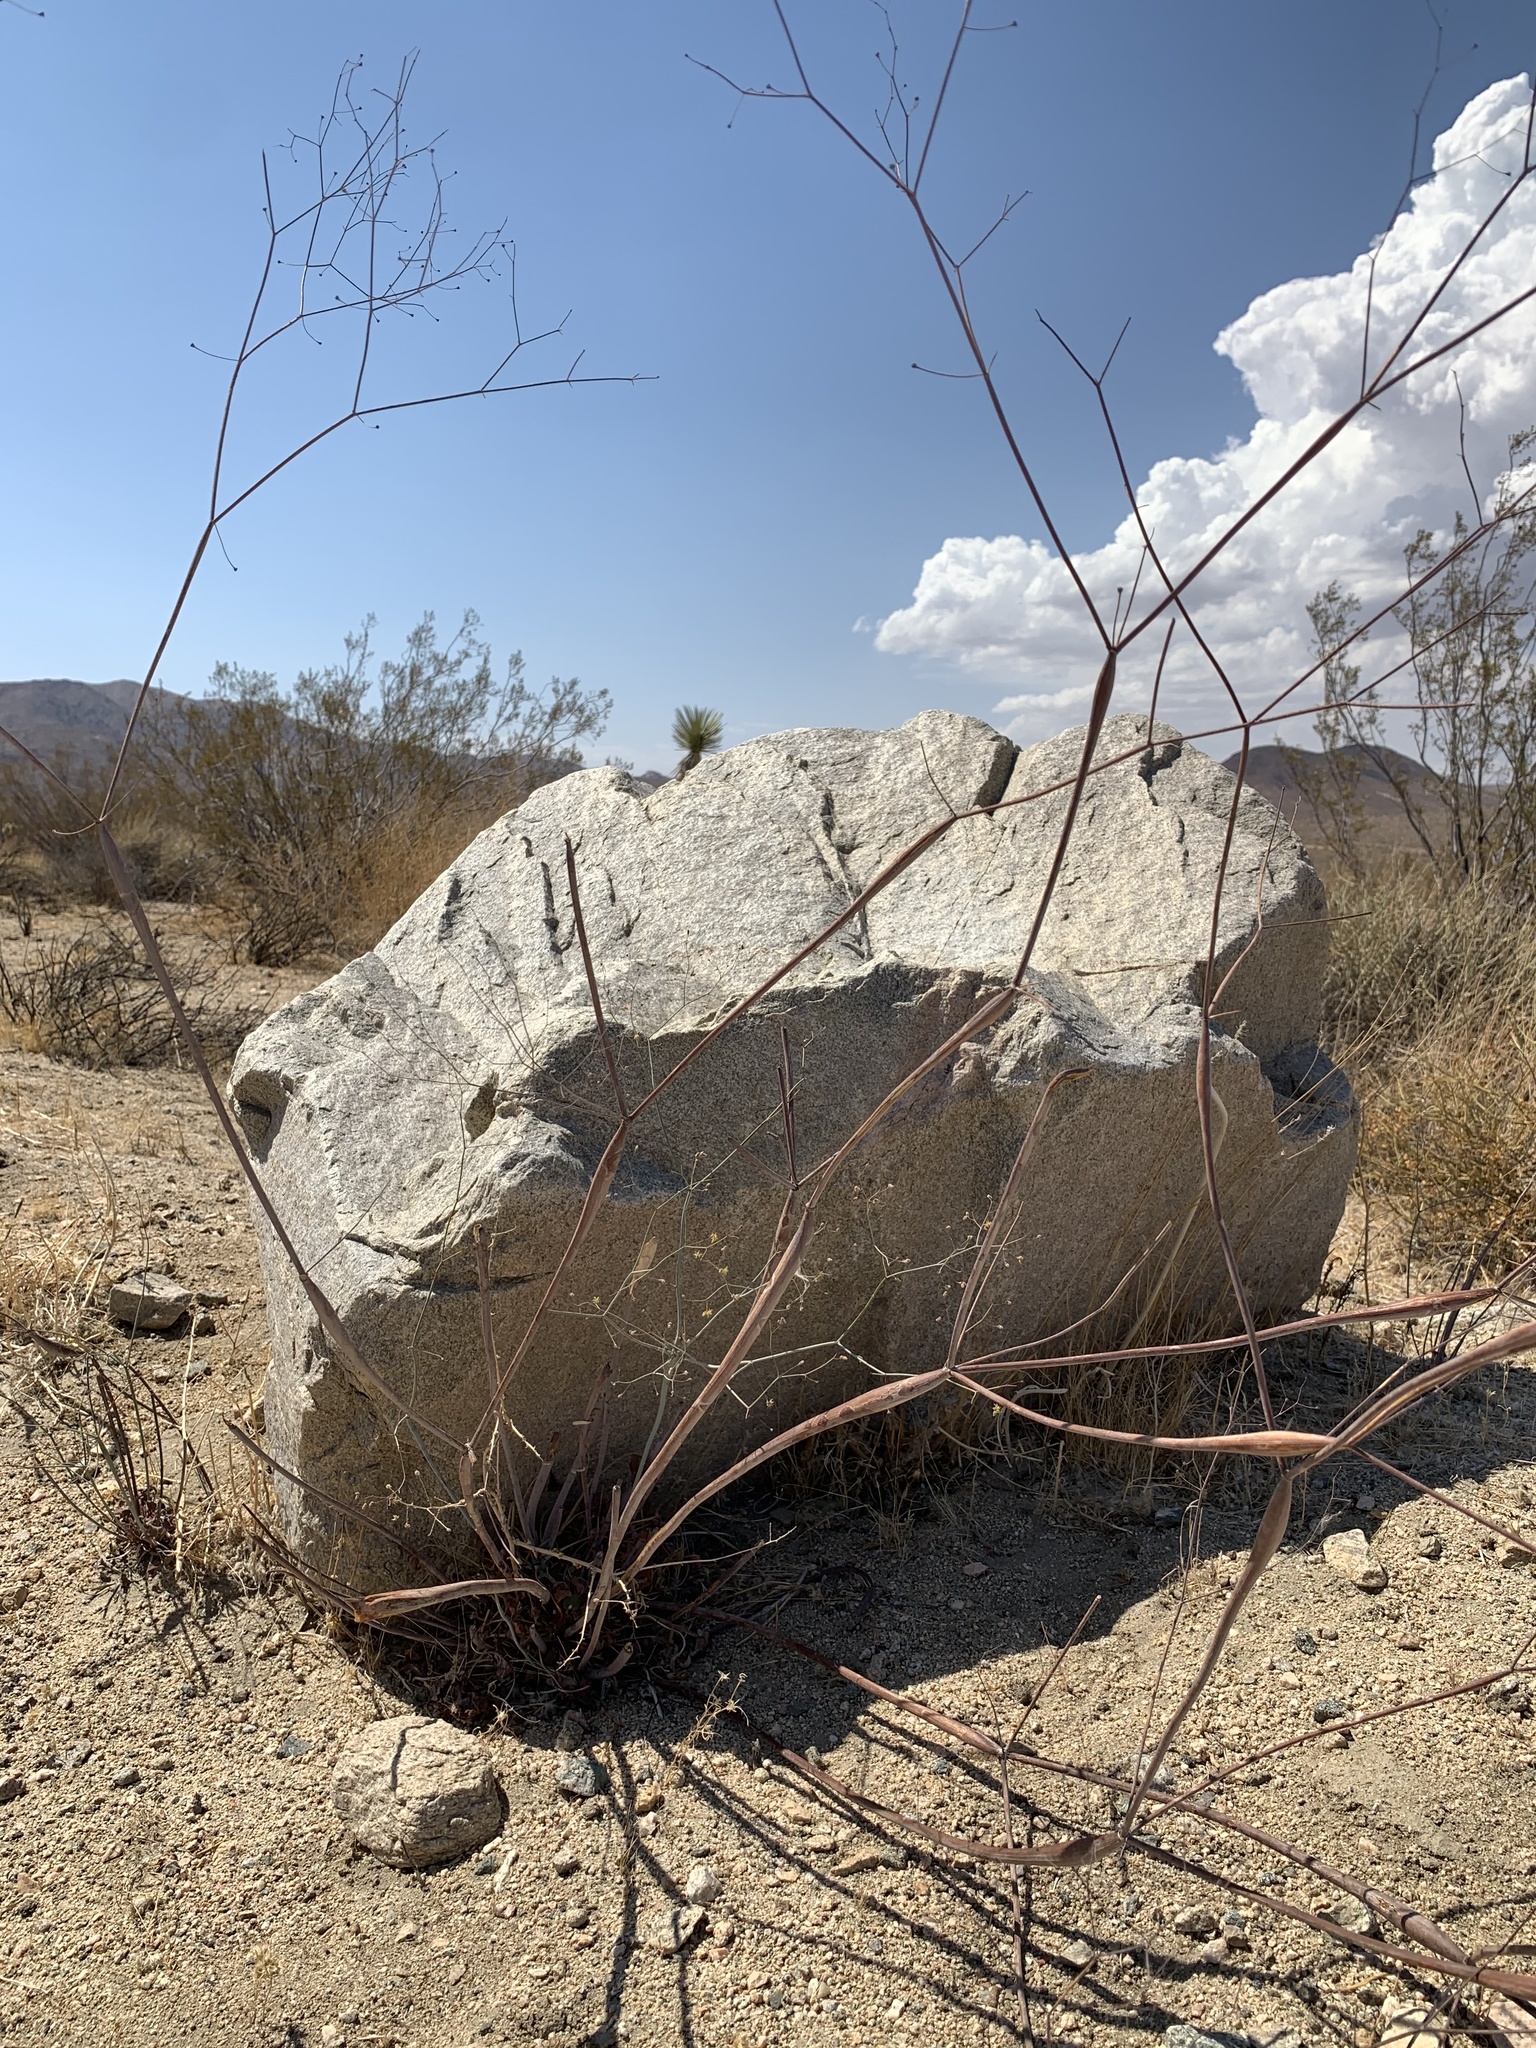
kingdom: Plantae
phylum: Tracheophyta
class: Magnoliopsida
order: Caryophyllales
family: Polygonaceae
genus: Eriogonum
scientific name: Eriogonum inflatum
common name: Desert trumpet
